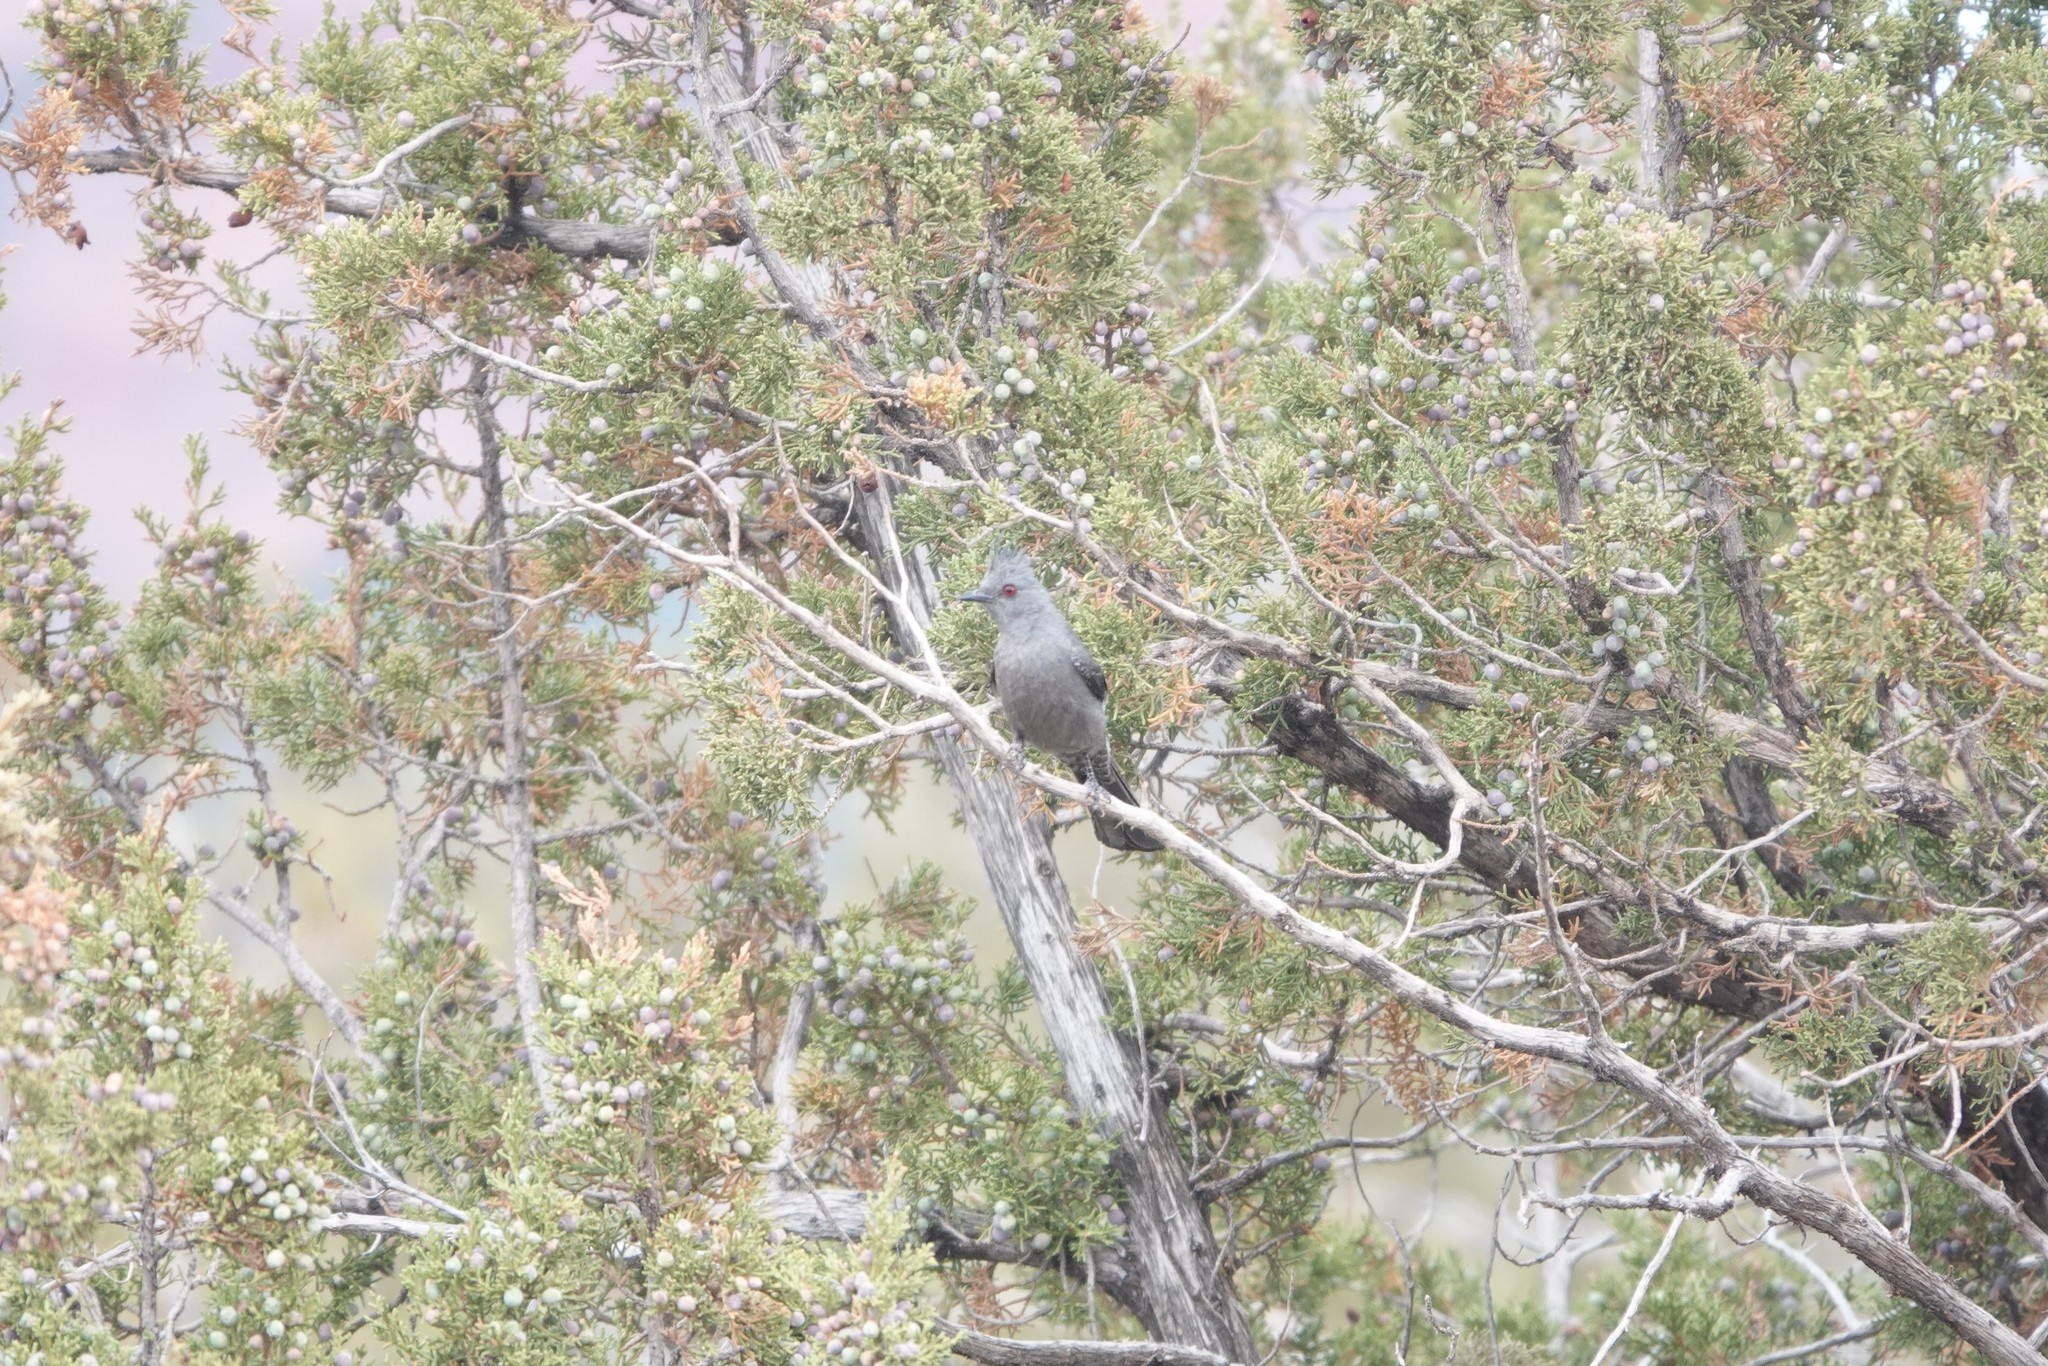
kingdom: Animalia
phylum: Chordata
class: Aves
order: Passeriformes
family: Ptilogonatidae
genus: Phainopepla
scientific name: Phainopepla nitens
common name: Phainopepla
